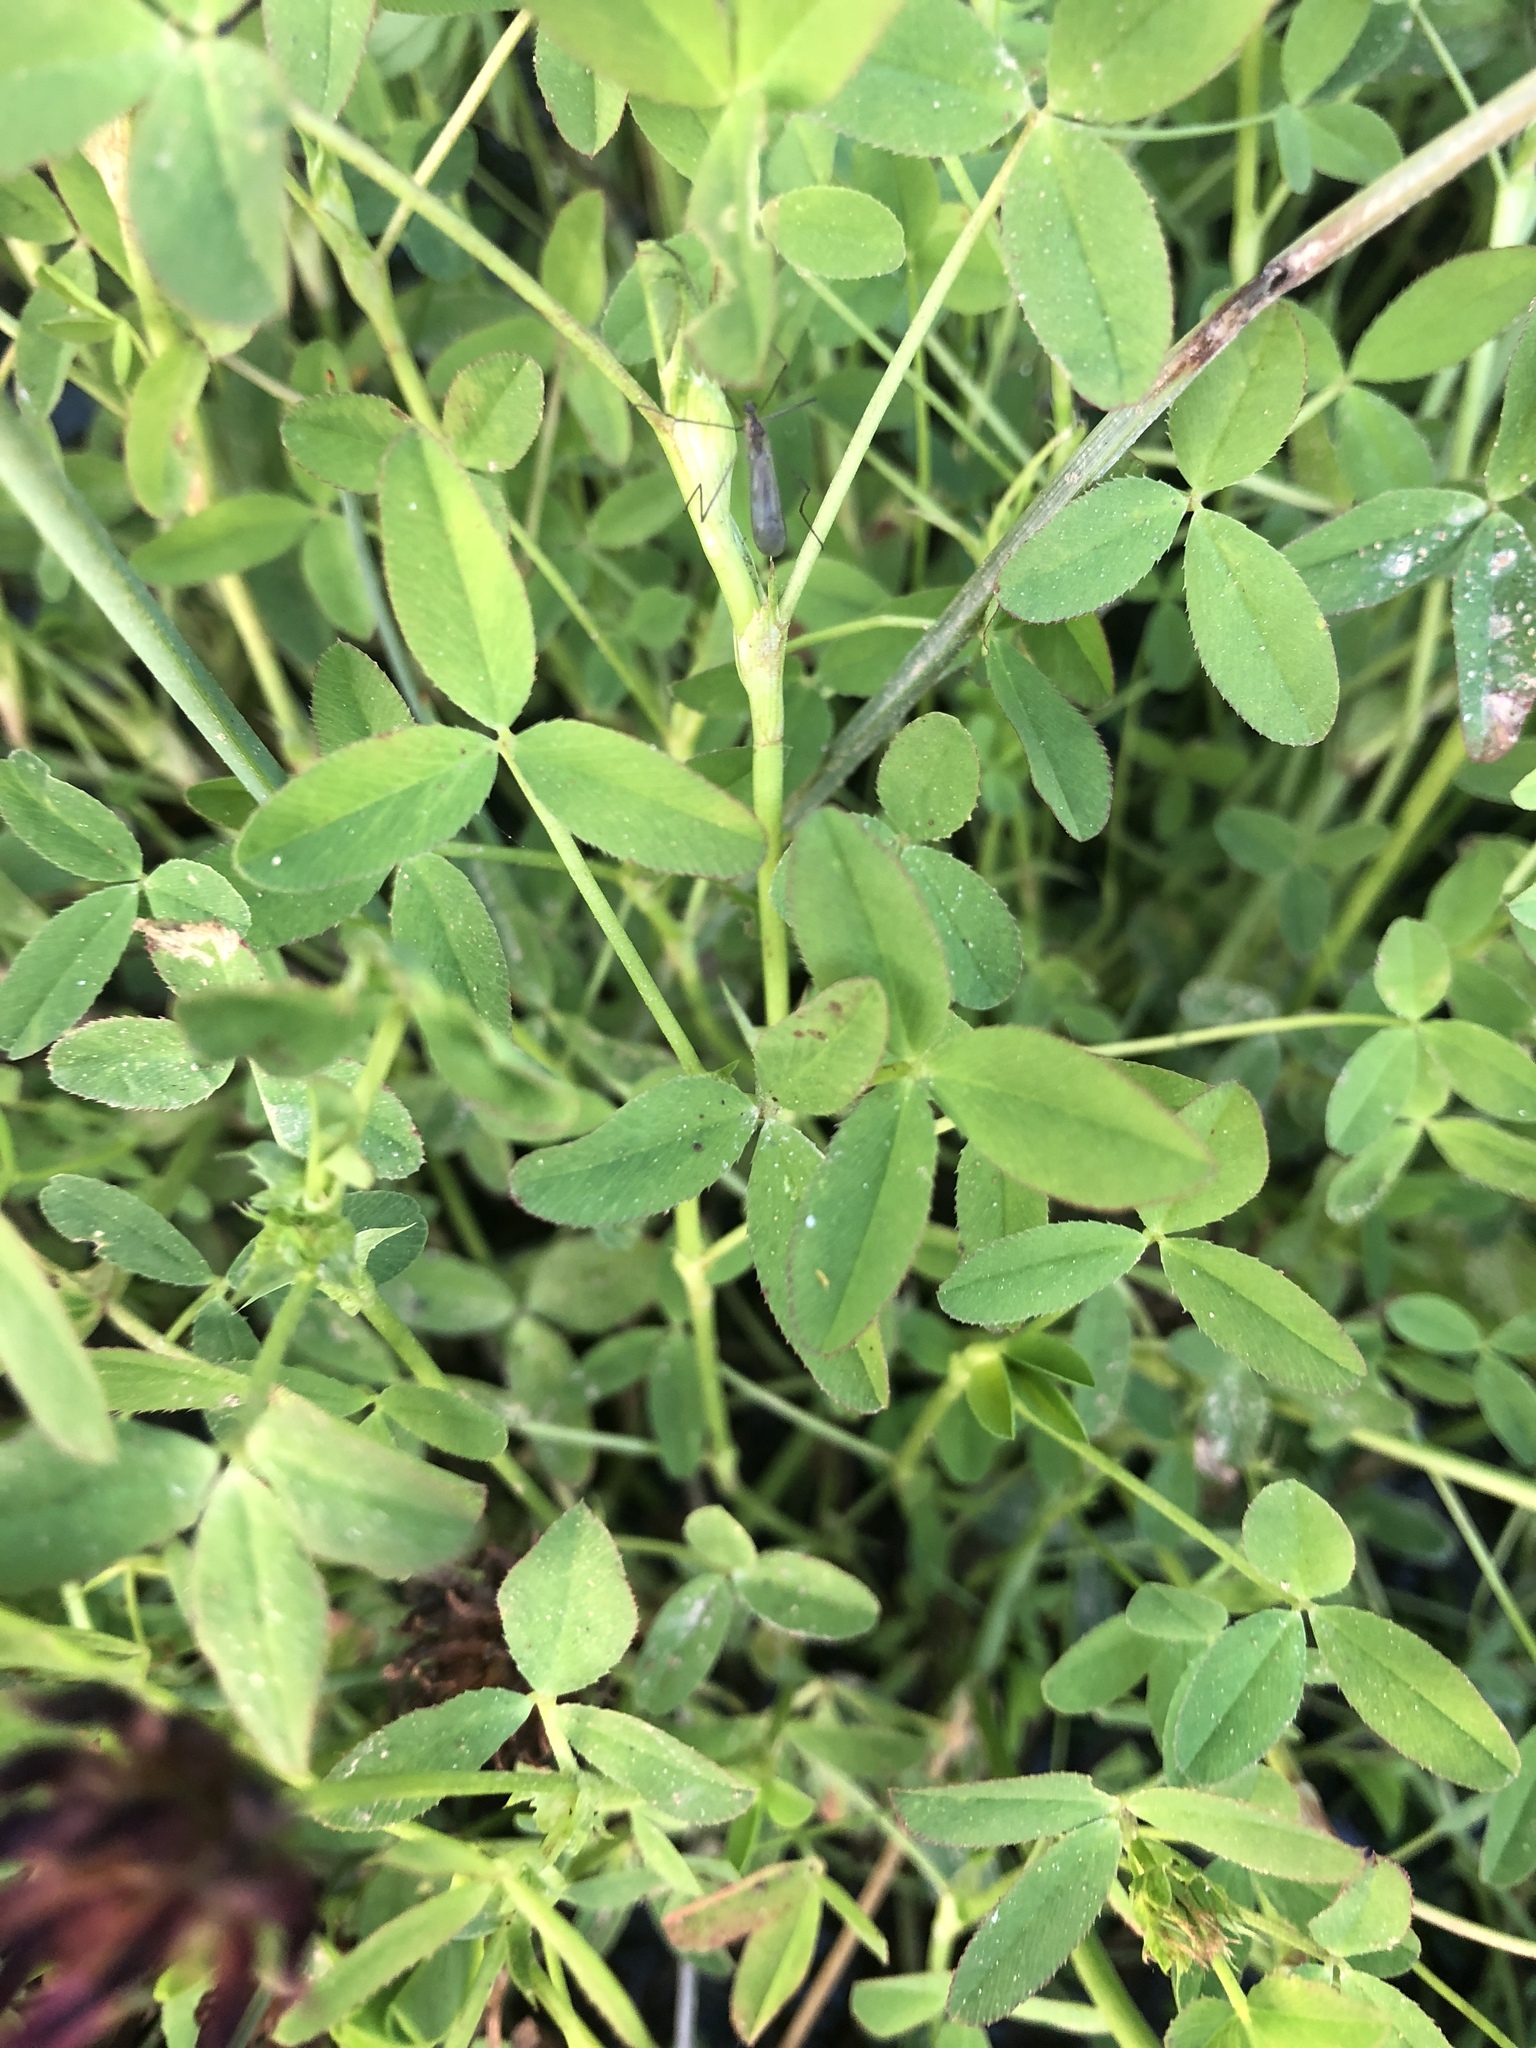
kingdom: Plantae
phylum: Tracheophyta
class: Magnoliopsida
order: Fabales
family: Fabaceae
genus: Trifolium
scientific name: Trifolium wormskioldii
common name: Springbank clover
